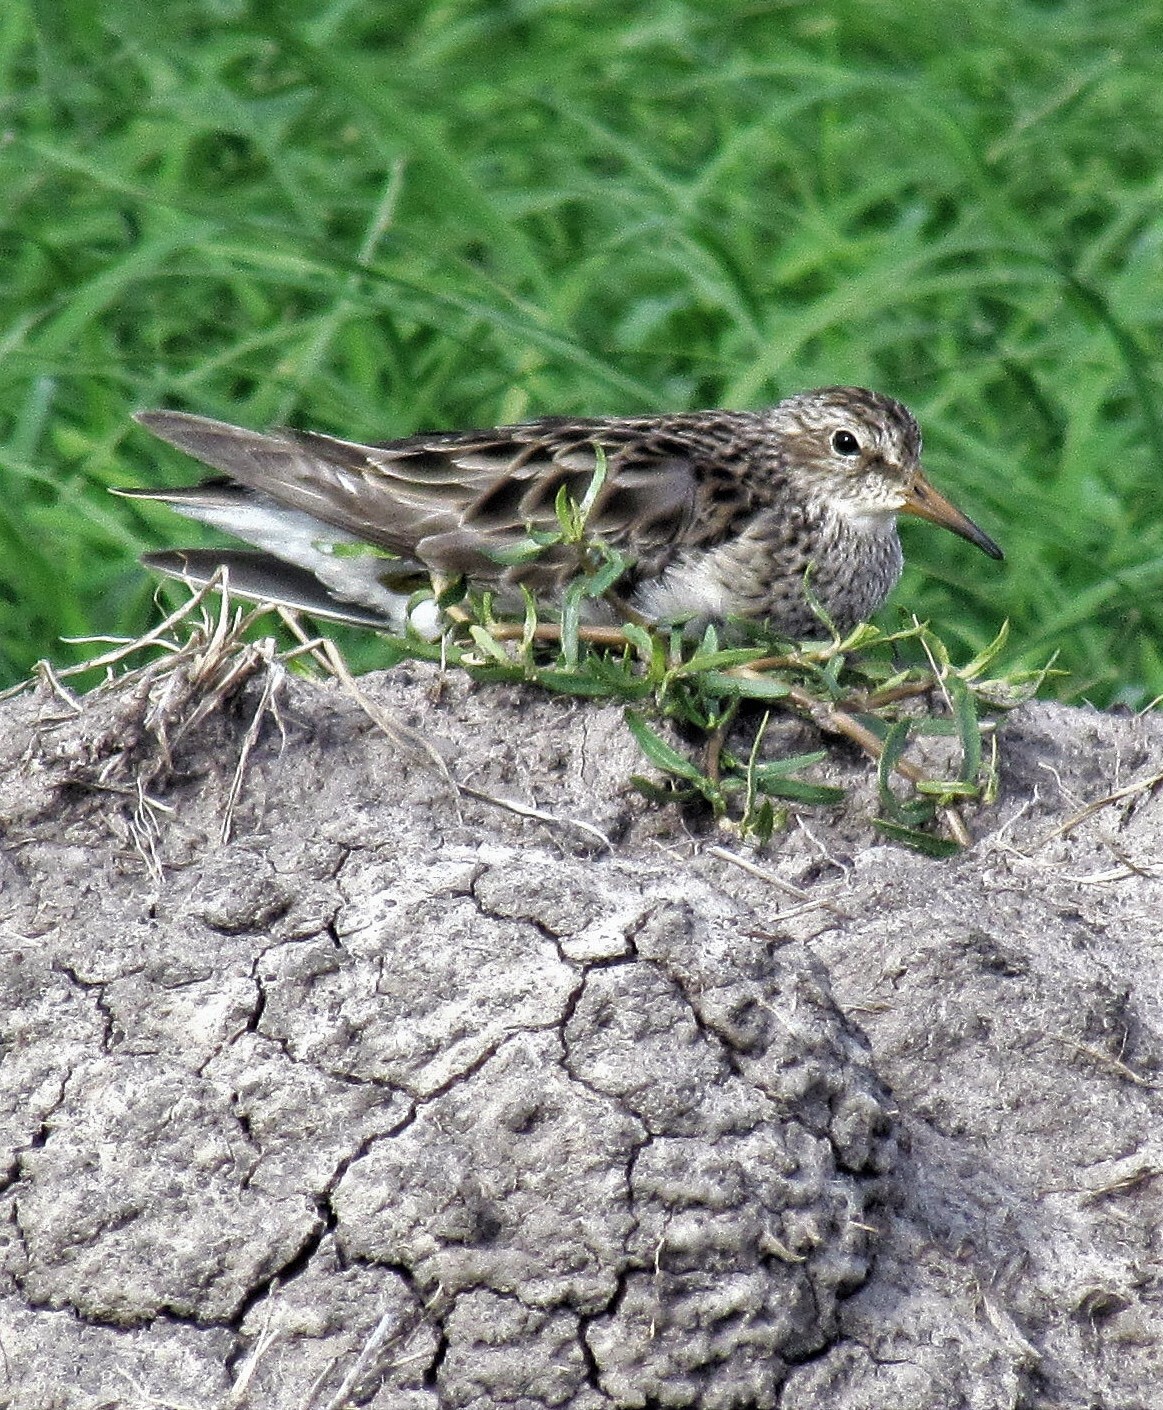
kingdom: Animalia
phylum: Chordata
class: Aves
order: Charadriiformes
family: Scolopacidae
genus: Calidris
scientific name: Calidris melanotos
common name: Pectoral sandpiper
